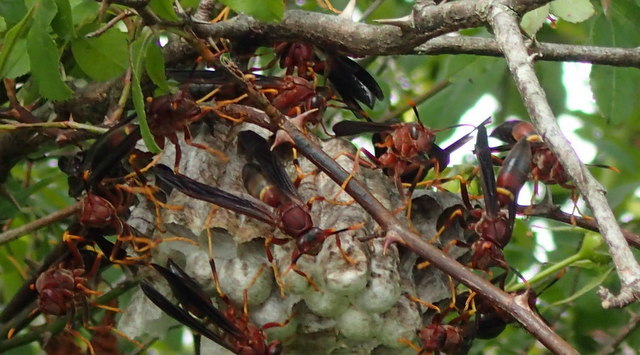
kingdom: Animalia
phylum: Arthropoda
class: Insecta
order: Hymenoptera
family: Eumenidae
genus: Polistes
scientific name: Polistes annularis
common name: Ringed paper wasp
